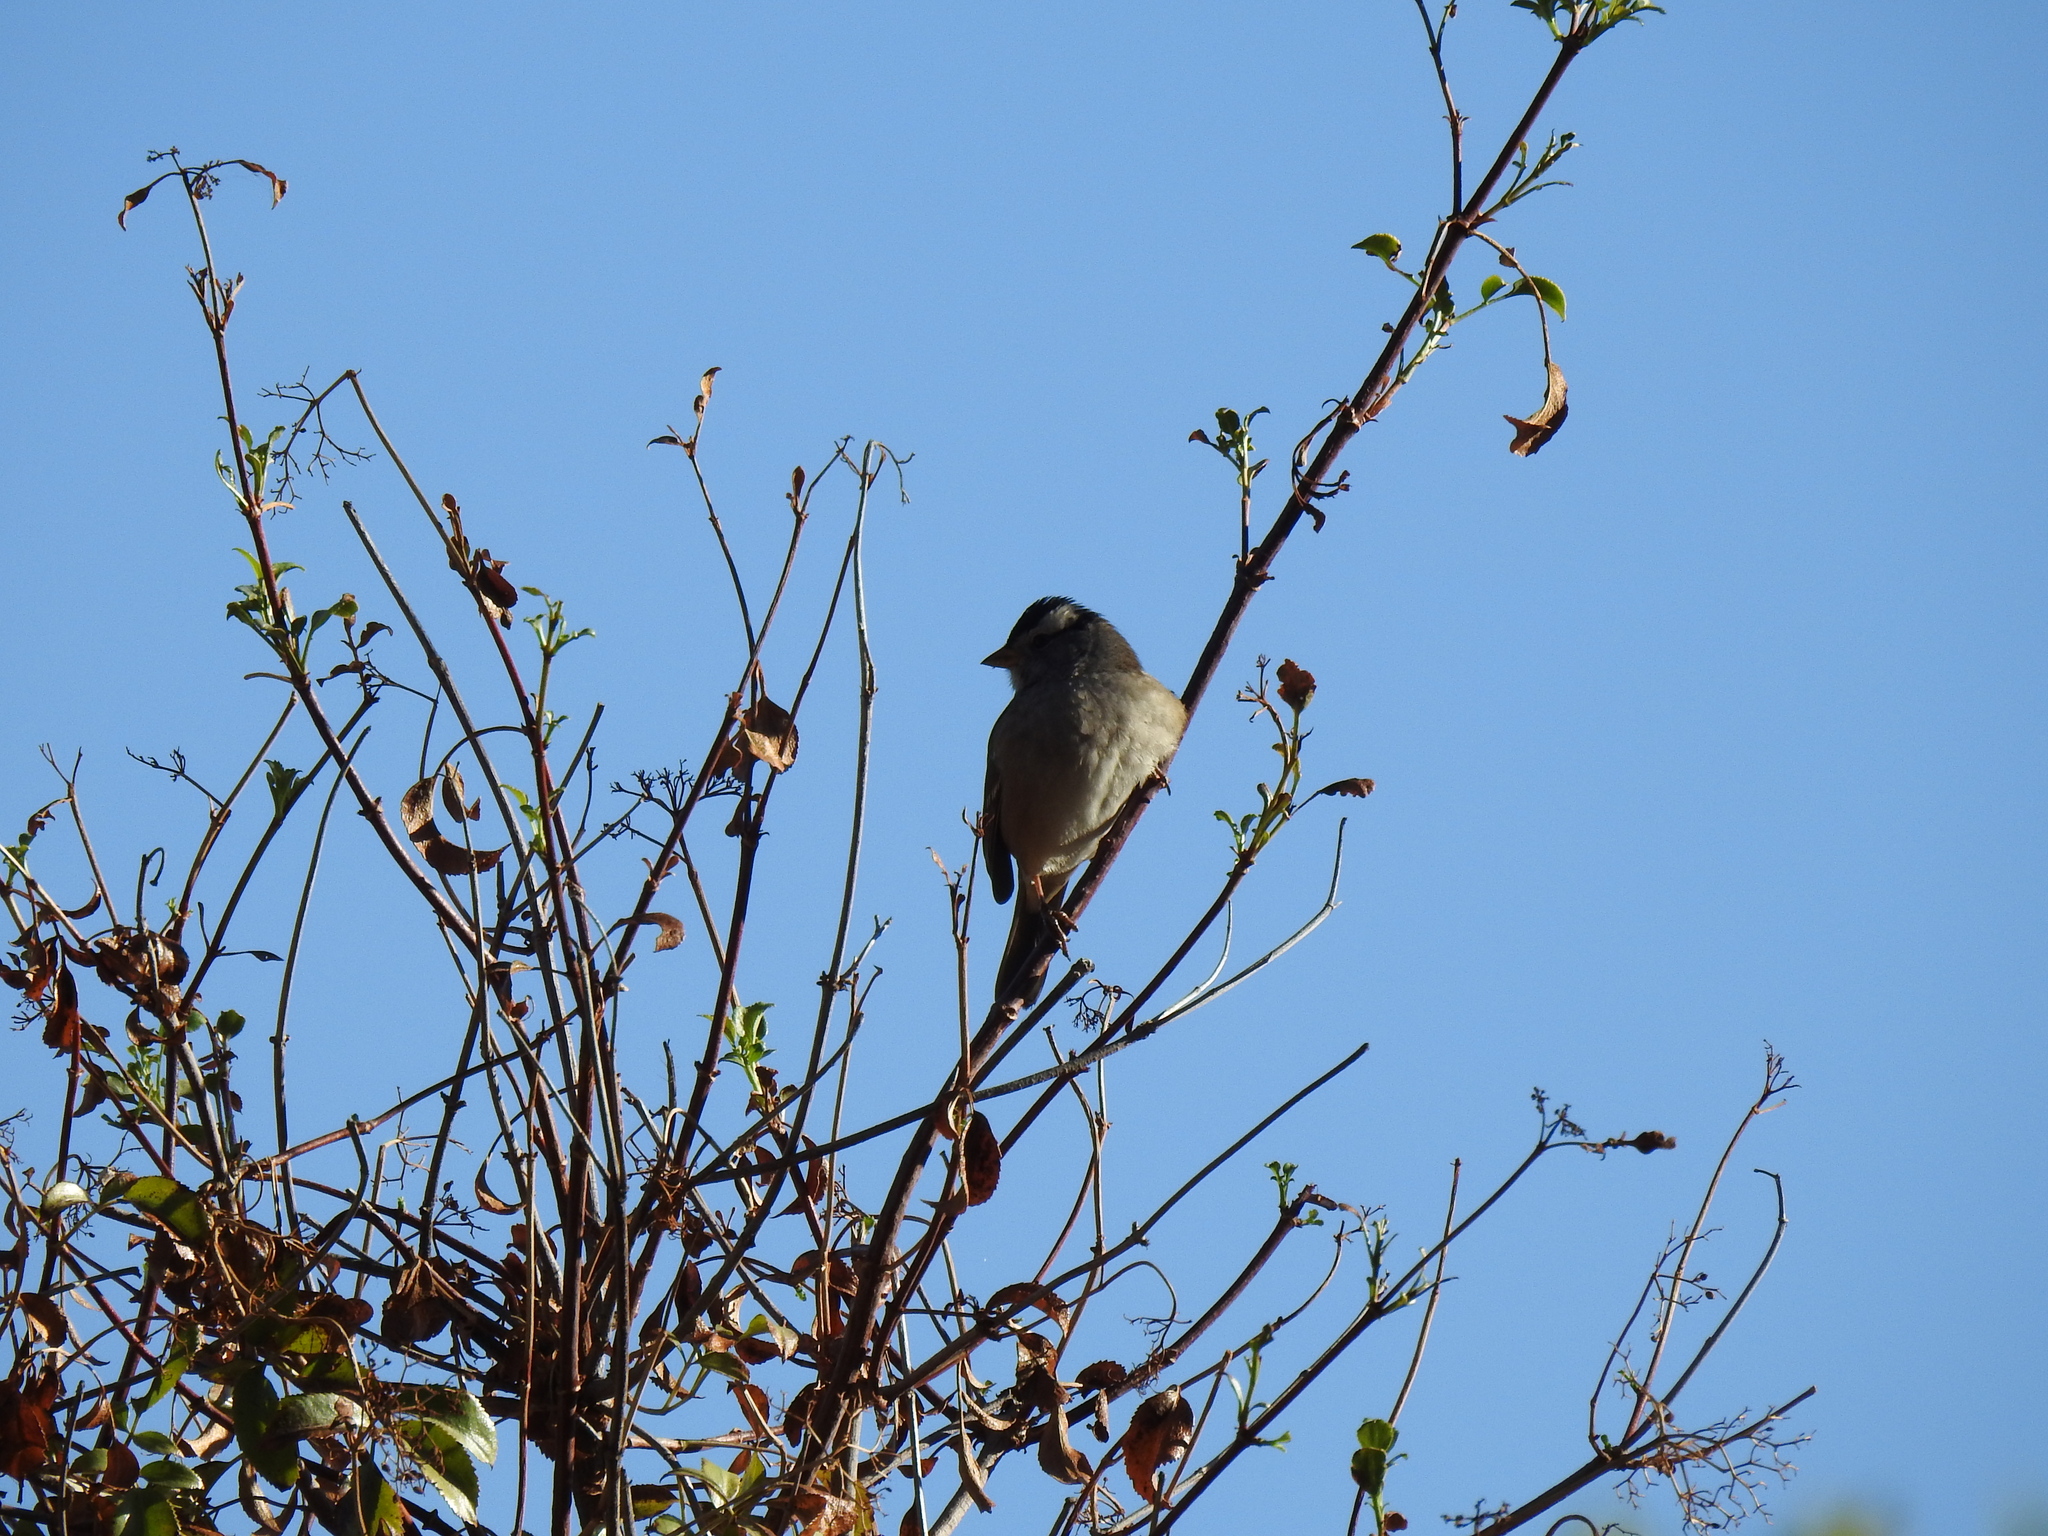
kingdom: Animalia
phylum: Chordata
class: Aves
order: Passeriformes
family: Passerellidae
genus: Zonotrichia
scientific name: Zonotrichia leucophrys
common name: White-crowned sparrow
